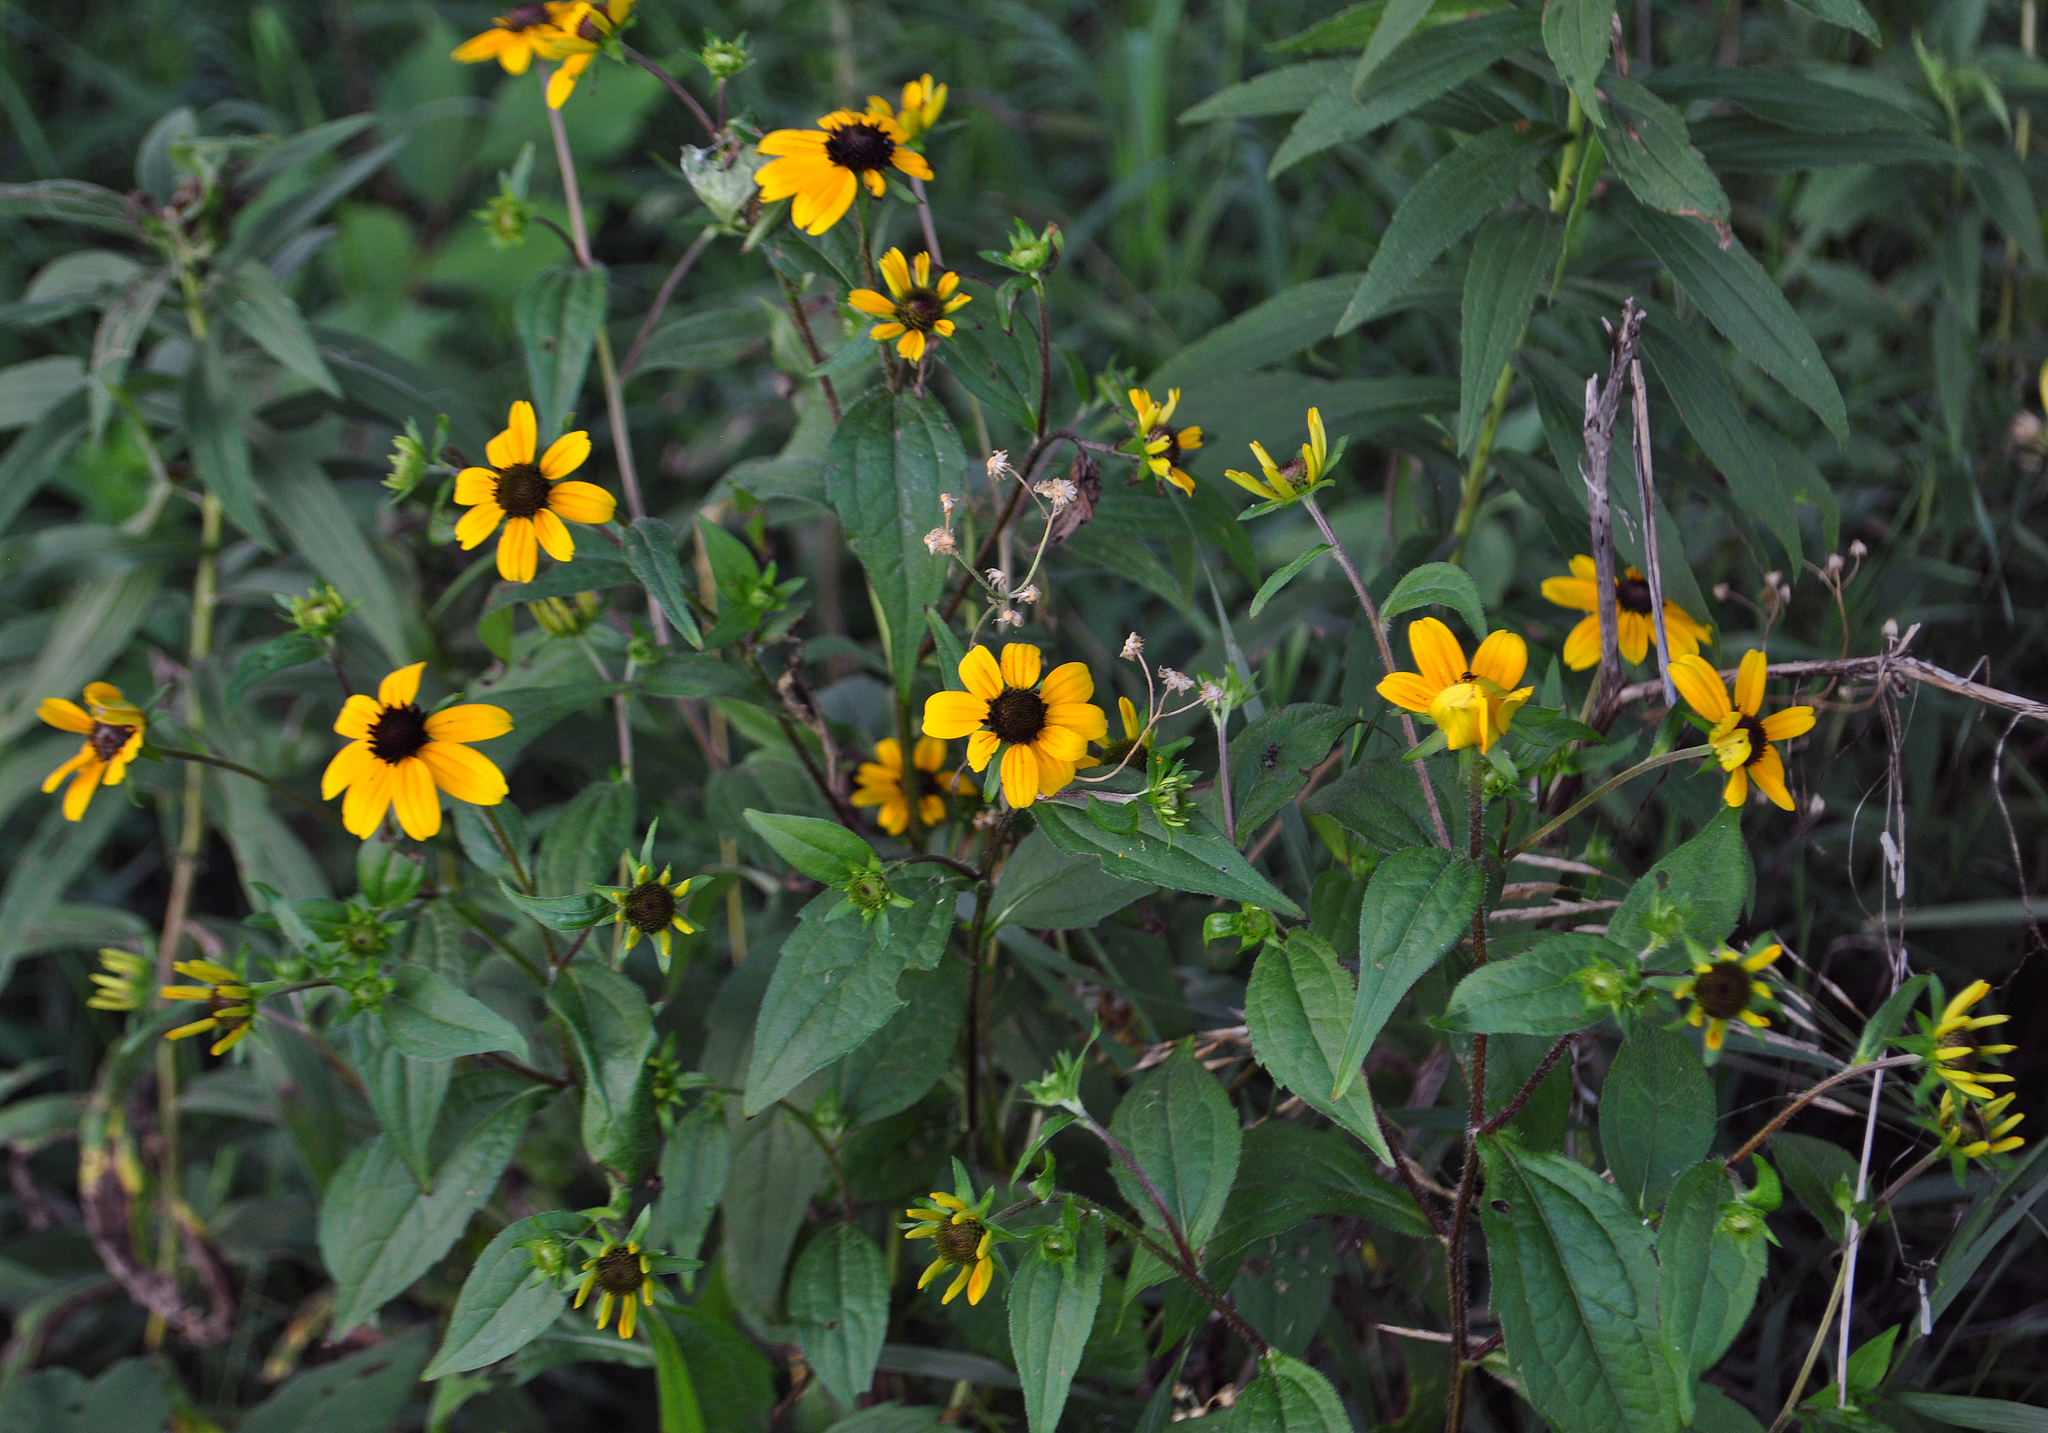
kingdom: Plantae
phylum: Tracheophyta
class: Magnoliopsida
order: Asterales
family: Asteraceae
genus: Rudbeckia
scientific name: Rudbeckia triloba
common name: Thin-leaved coneflower
